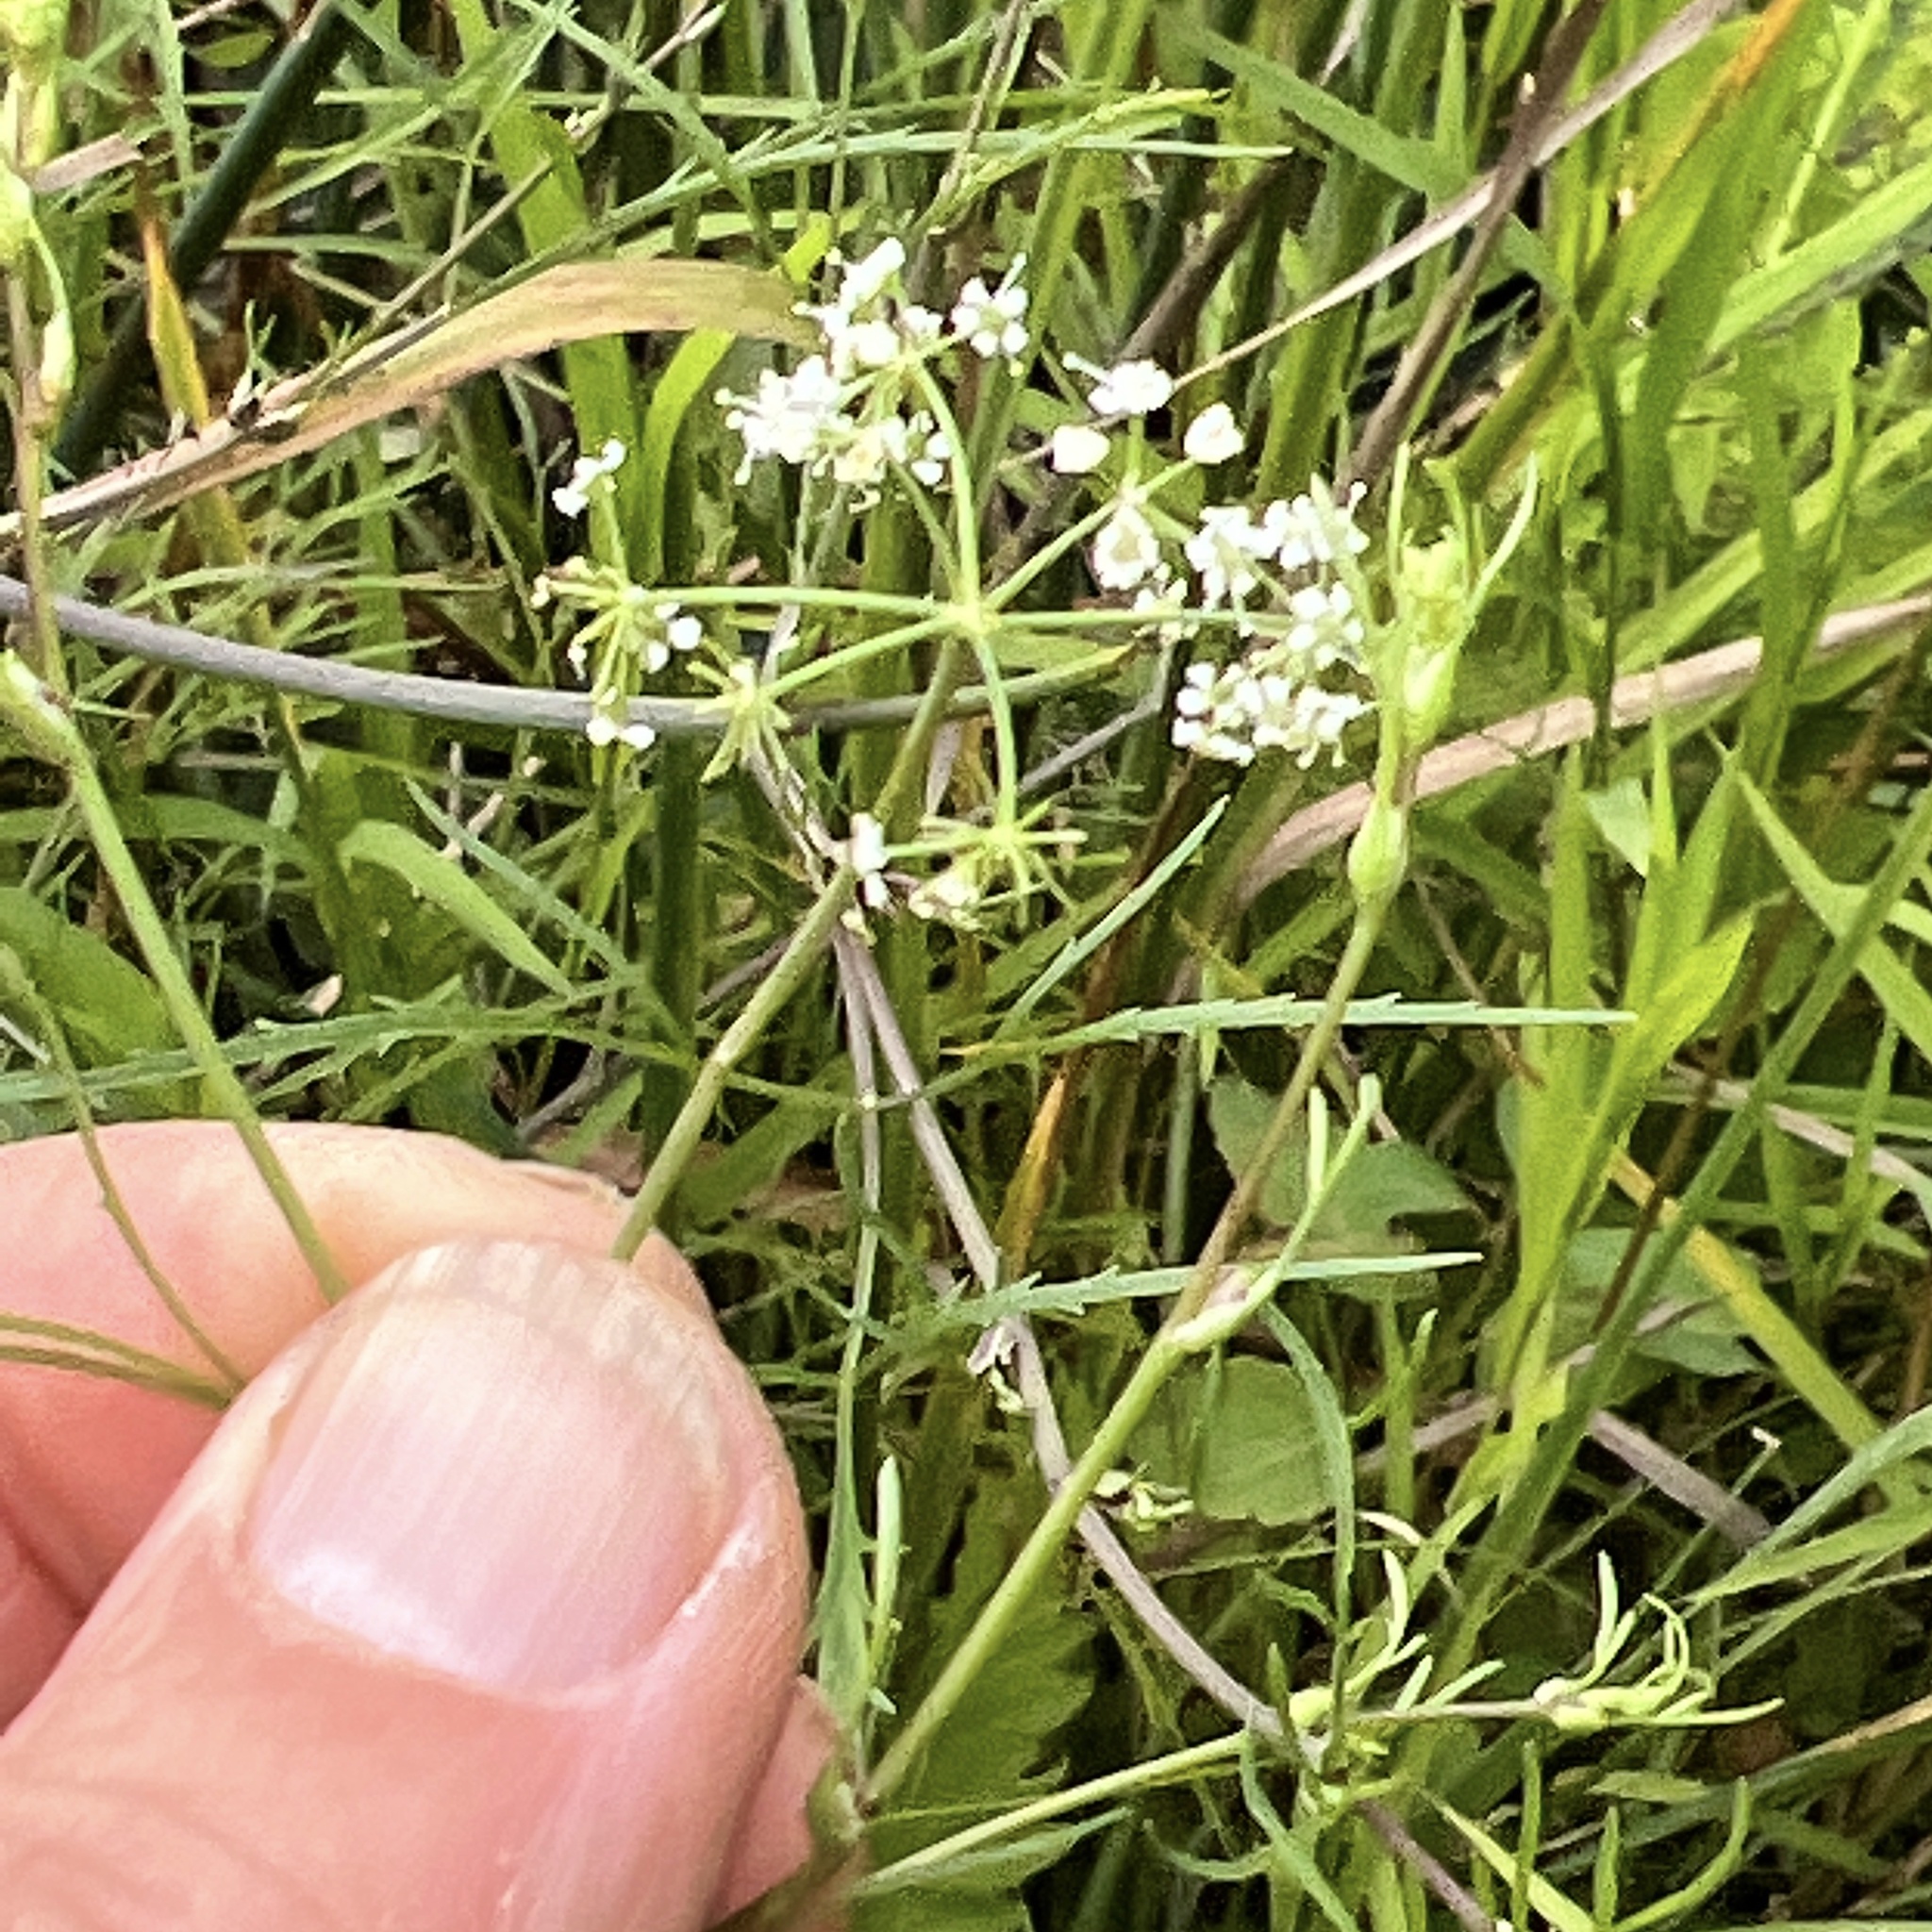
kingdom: Plantae
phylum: Tracheophyta
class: Magnoliopsida
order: Apiales
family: Apiaceae
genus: Cicuta
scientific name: Cicuta bulbifera
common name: Bulb-bearing water-hemlock
